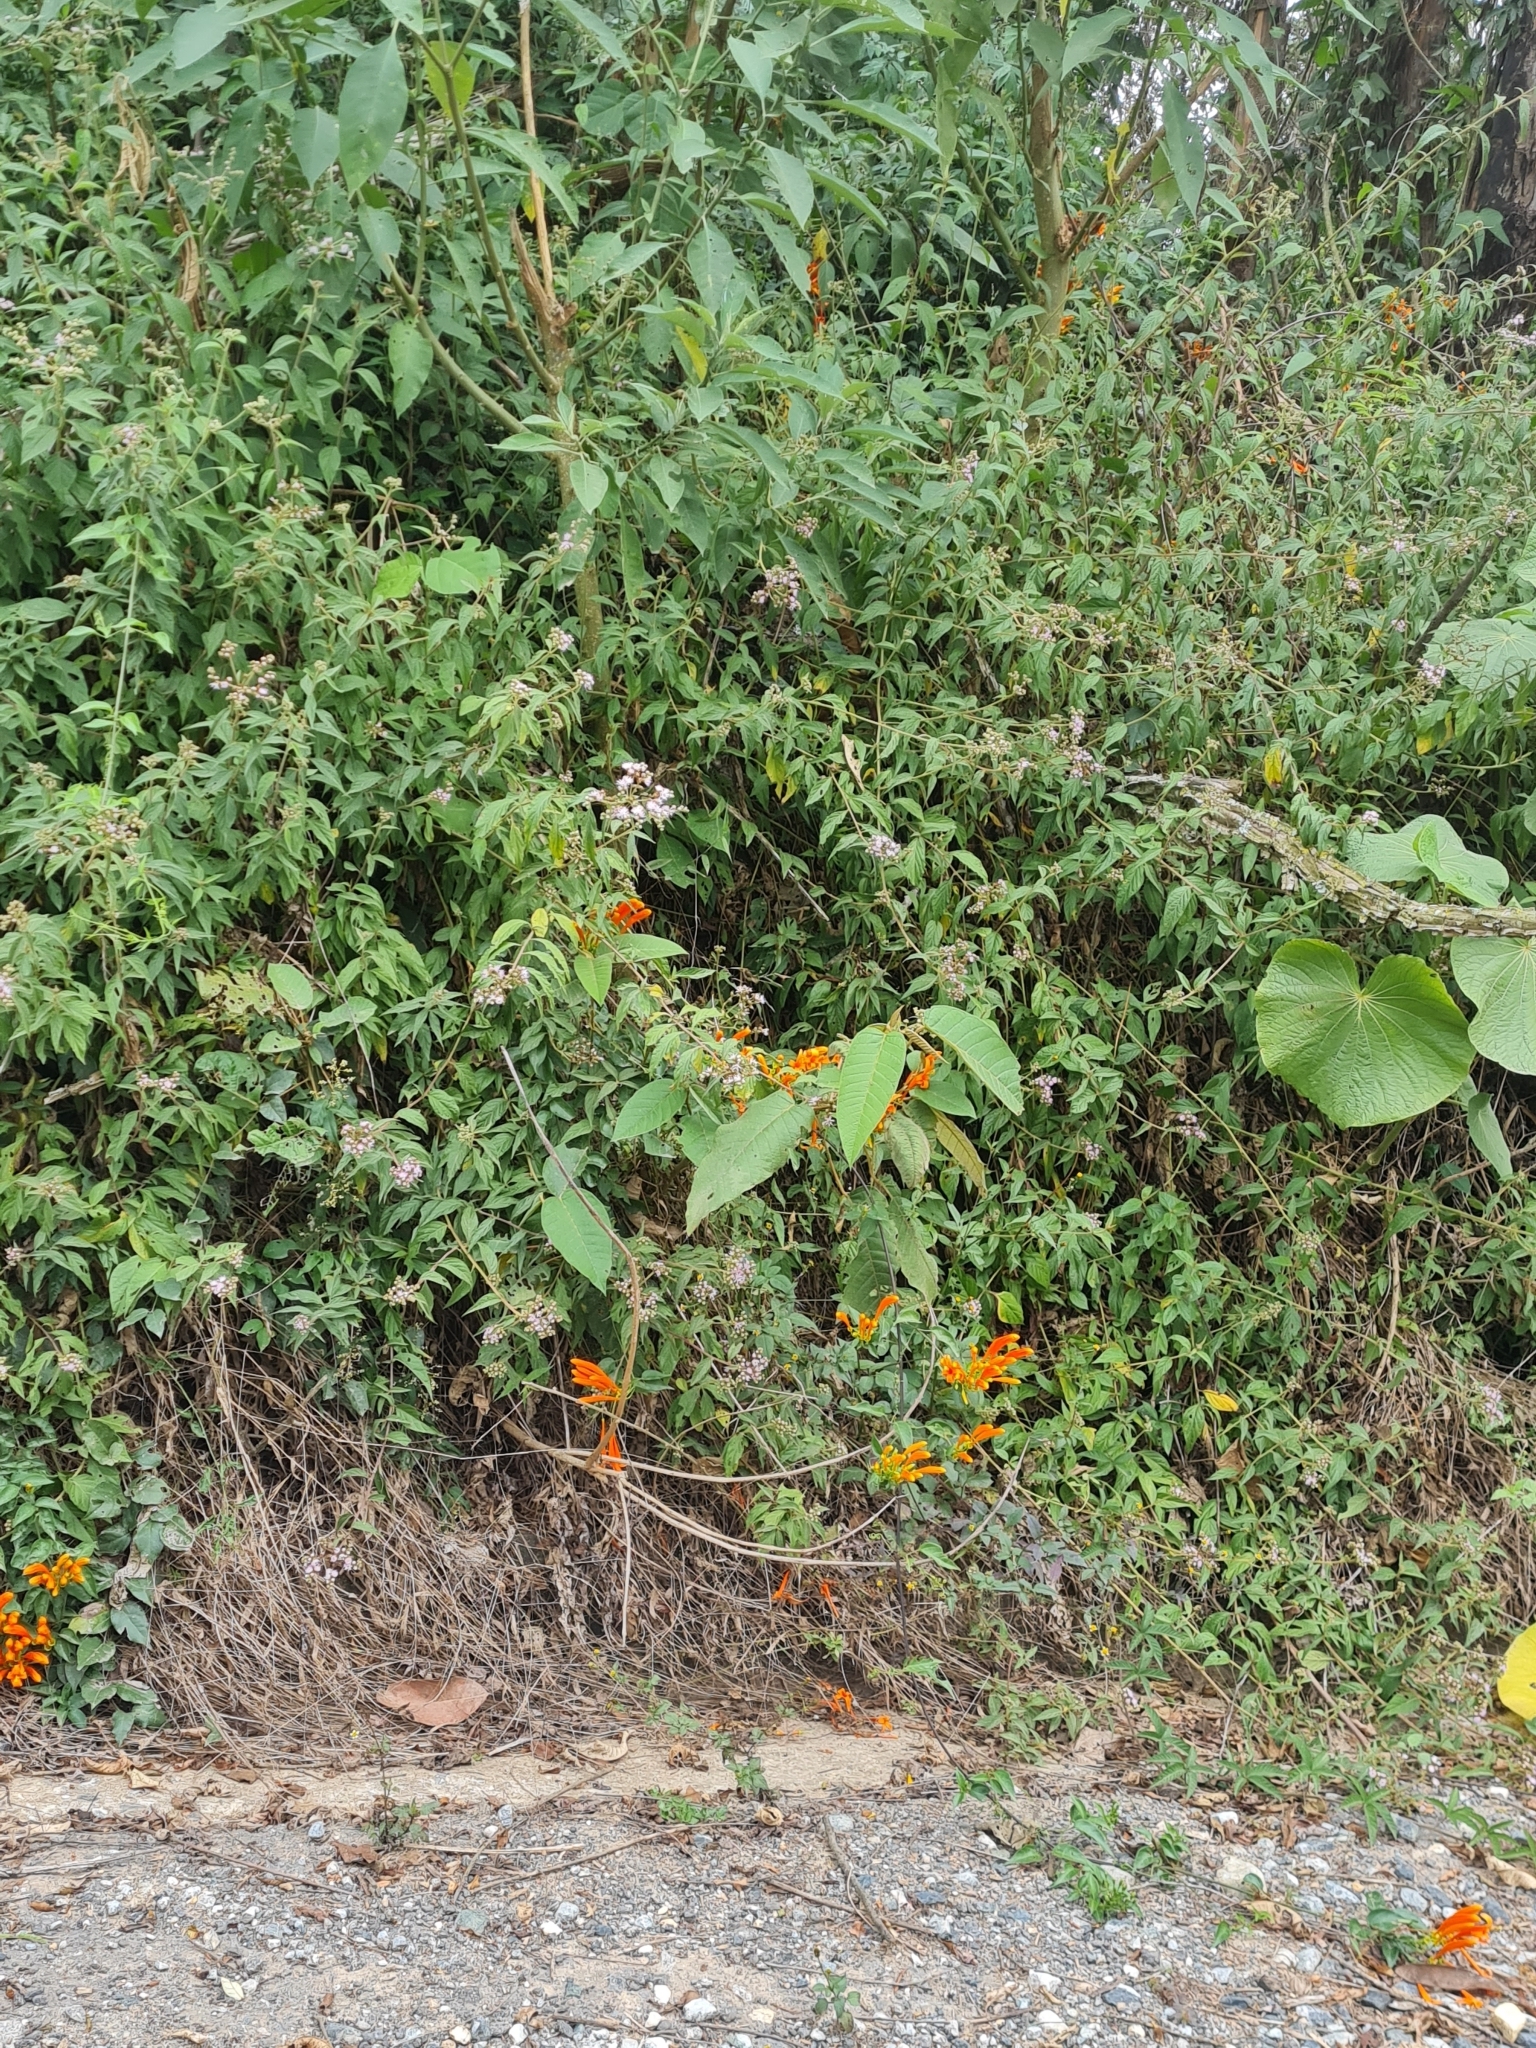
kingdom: Plantae
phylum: Tracheophyta
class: Magnoliopsida
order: Lamiales
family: Bignoniaceae
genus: Pyrostegia
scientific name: Pyrostegia venusta
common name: Flamevine
